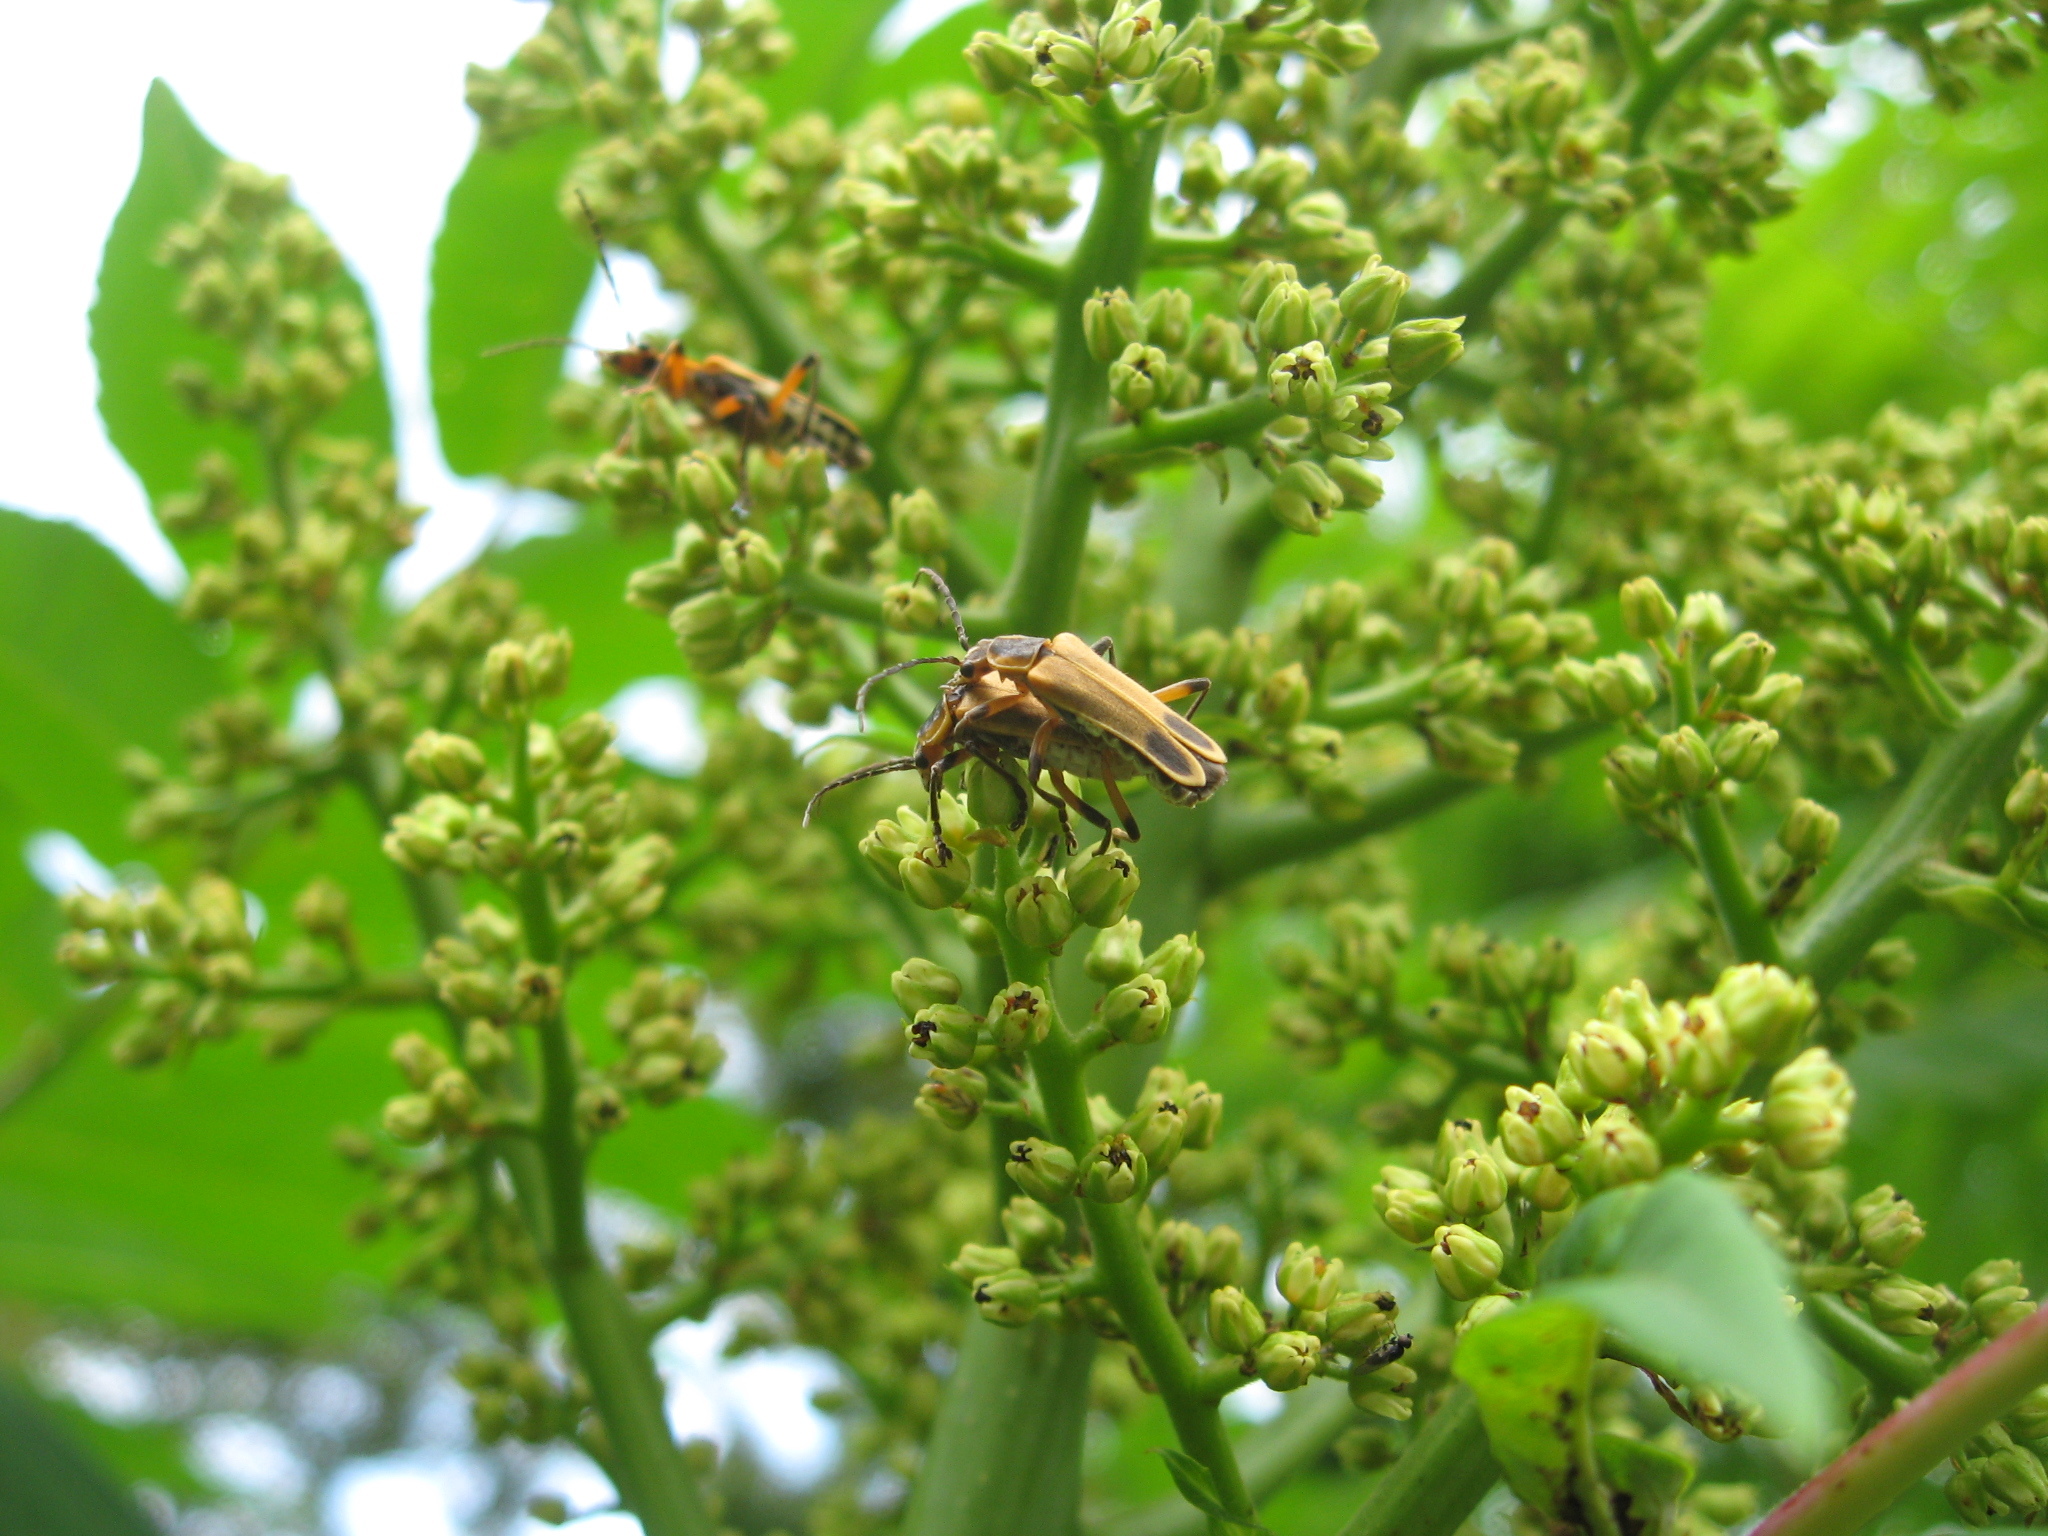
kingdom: Animalia
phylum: Arthropoda
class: Insecta
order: Coleoptera
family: Cantharidae
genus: Chauliognathus
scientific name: Chauliognathus marginatus
